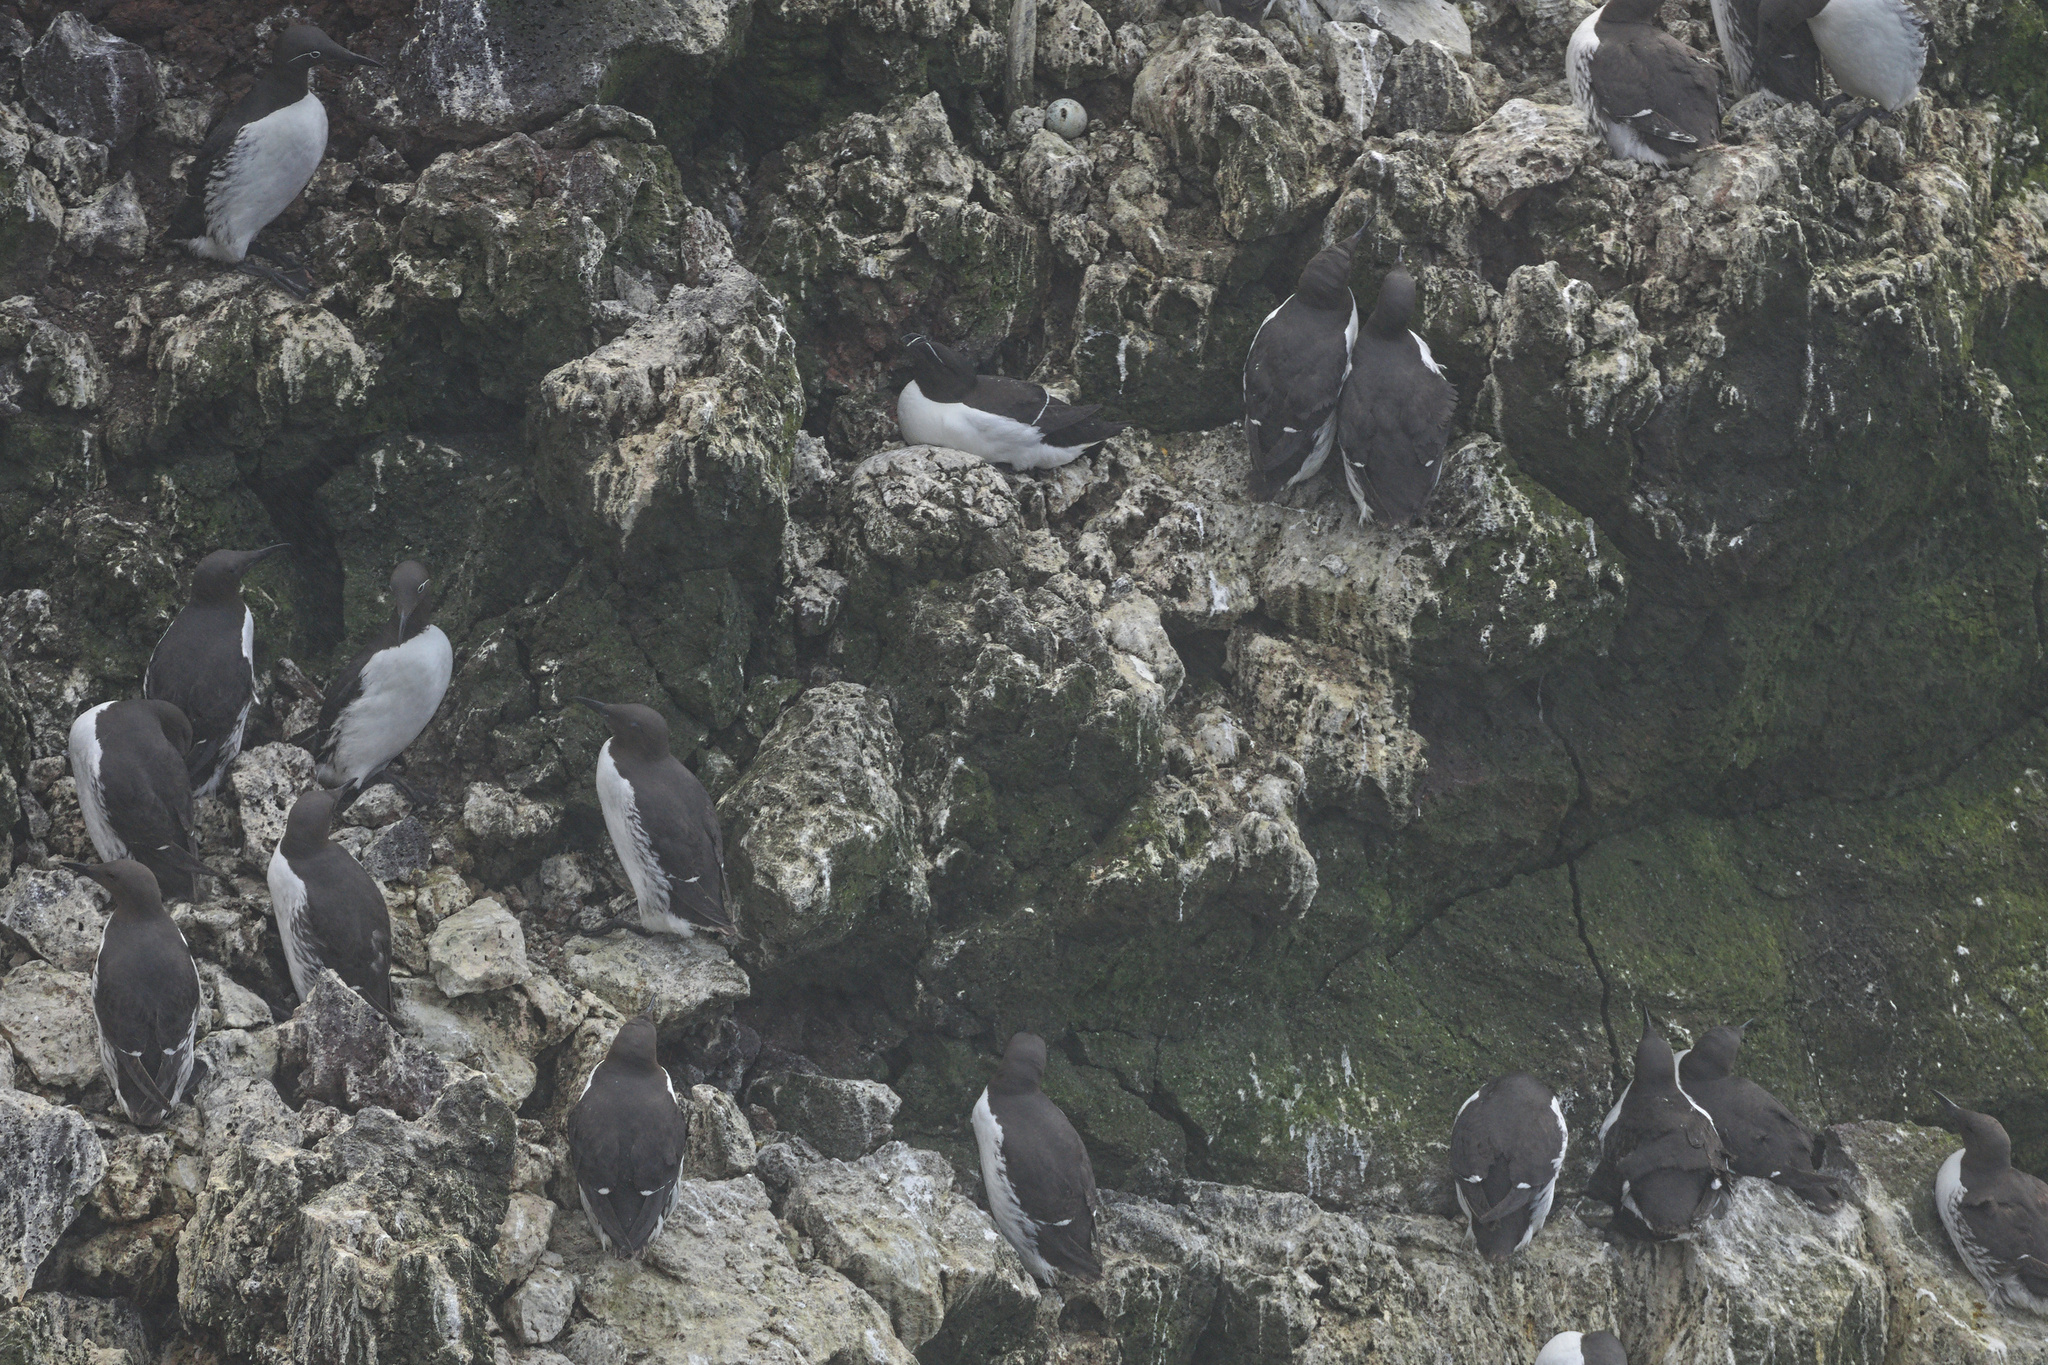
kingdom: Animalia
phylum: Chordata
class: Aves
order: Charadriiformes
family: Alcidae
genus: Alca
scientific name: Alca torda
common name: Razorbill
